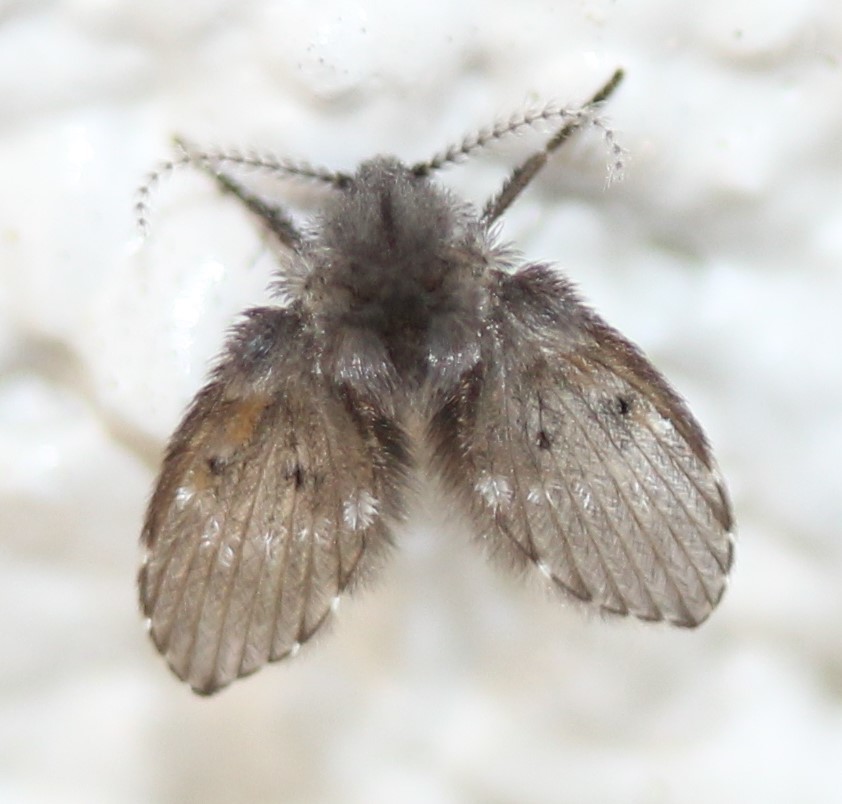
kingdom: Animalia
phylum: Arthropoda
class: Insecta
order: Diptera
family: Psychodidae
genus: Clogmia
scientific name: Clogmia albipunctatus
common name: White-spotted moth fly
